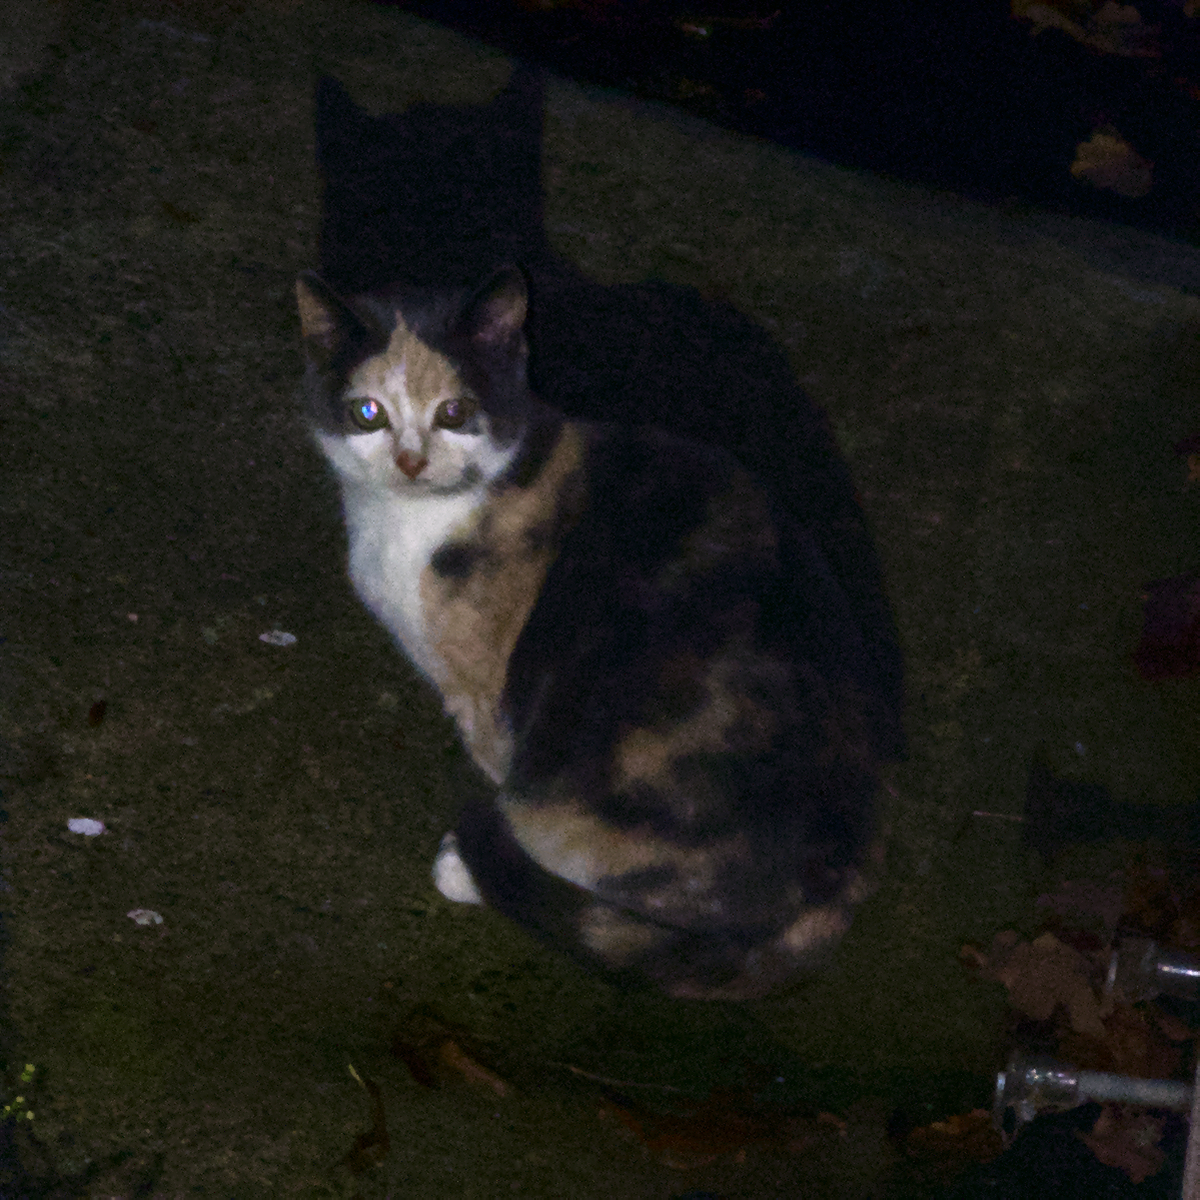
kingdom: Animalia
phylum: Chordata
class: Mammalia
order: Carnivora
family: Felidae
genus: Felis
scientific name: Felis catus
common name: Domestic cat
